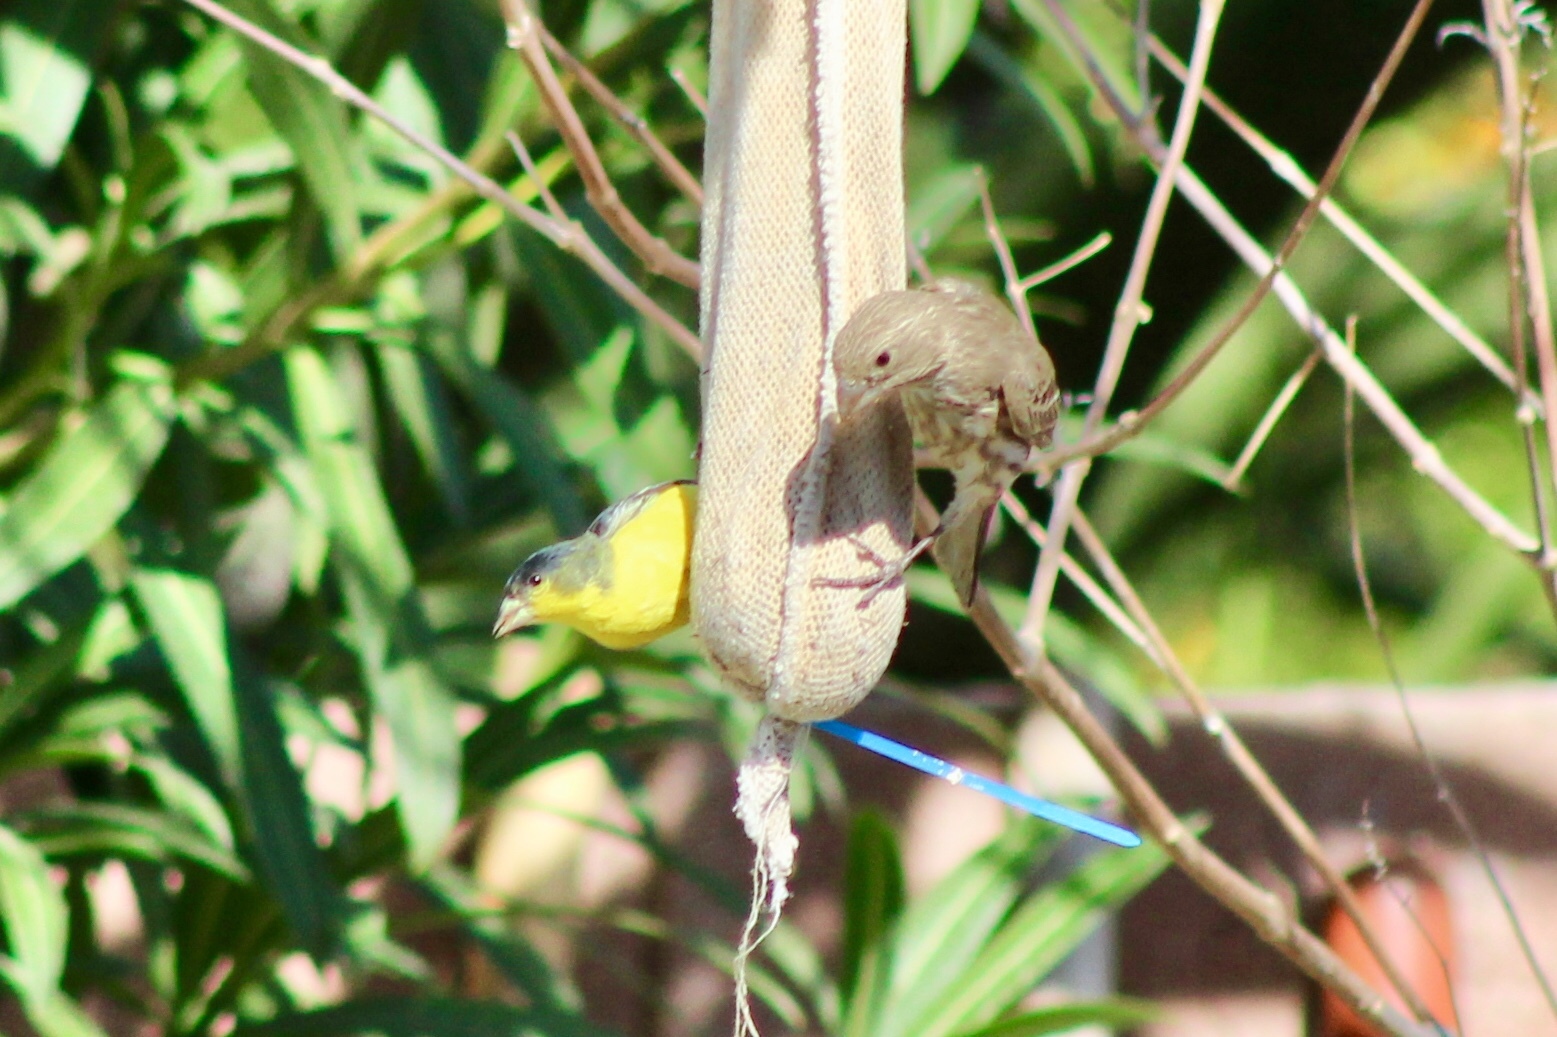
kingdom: Animalia
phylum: Chordata
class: Aves
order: Passeriformes
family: Fringillidae
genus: Haemorhous
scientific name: Haemorhous mexicanus
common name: House finch
